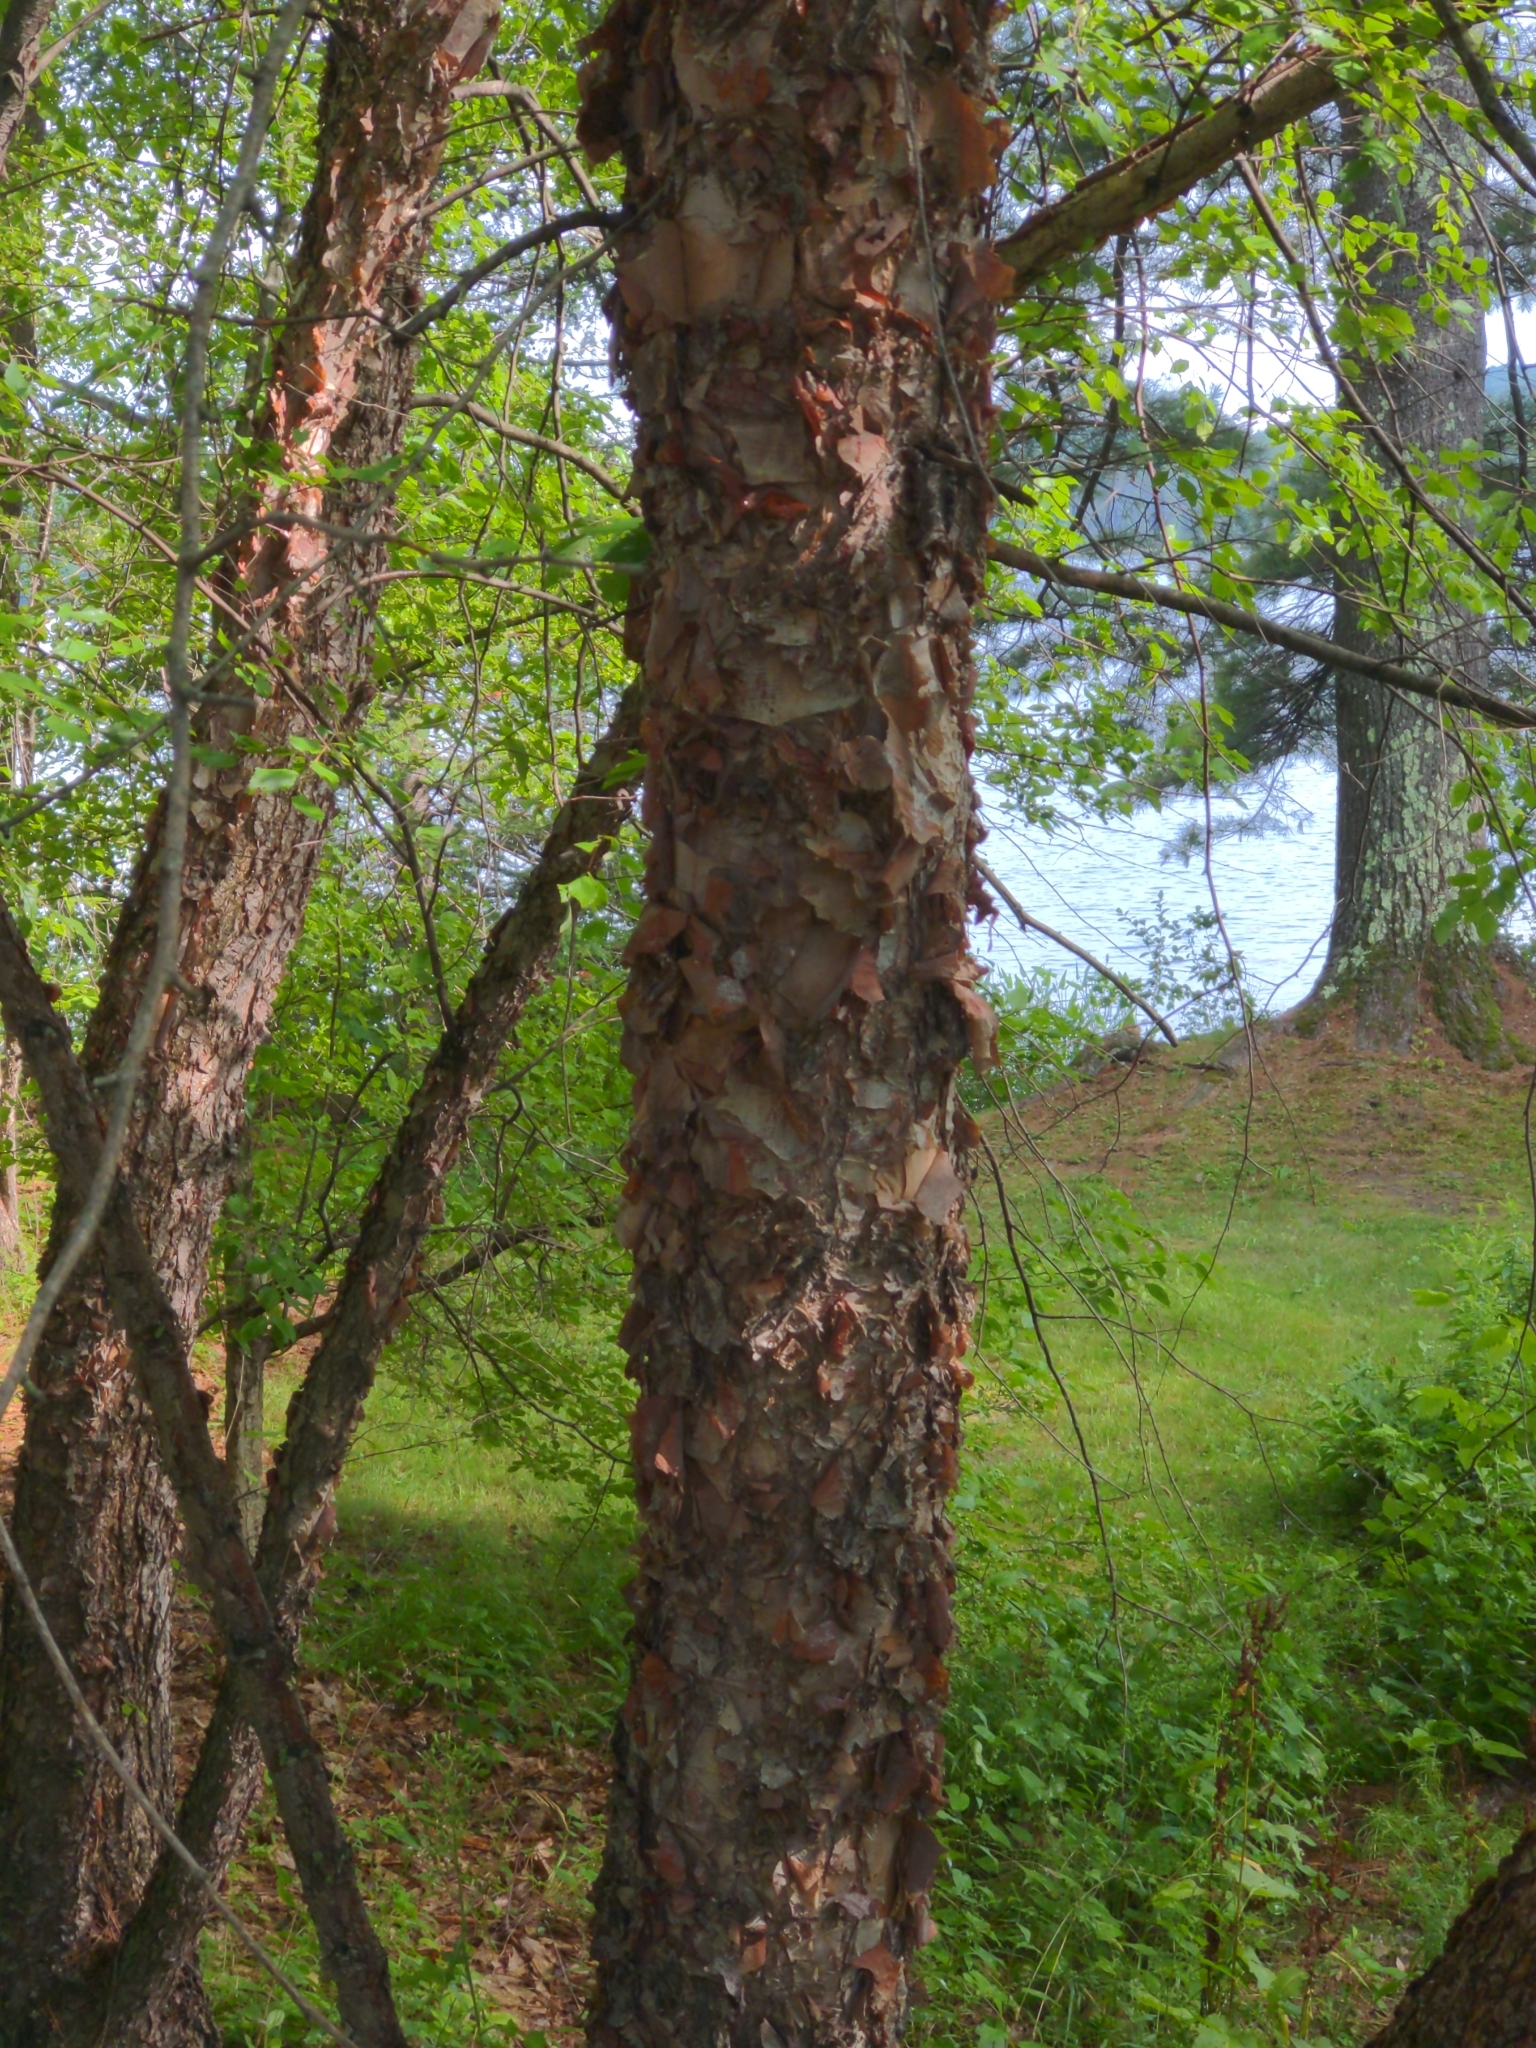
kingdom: Plantae
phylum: Tracheophyta
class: Magnoliopsida
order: Fagales
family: Betulaceae
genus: Betula
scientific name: Betula nigra
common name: Black birch
